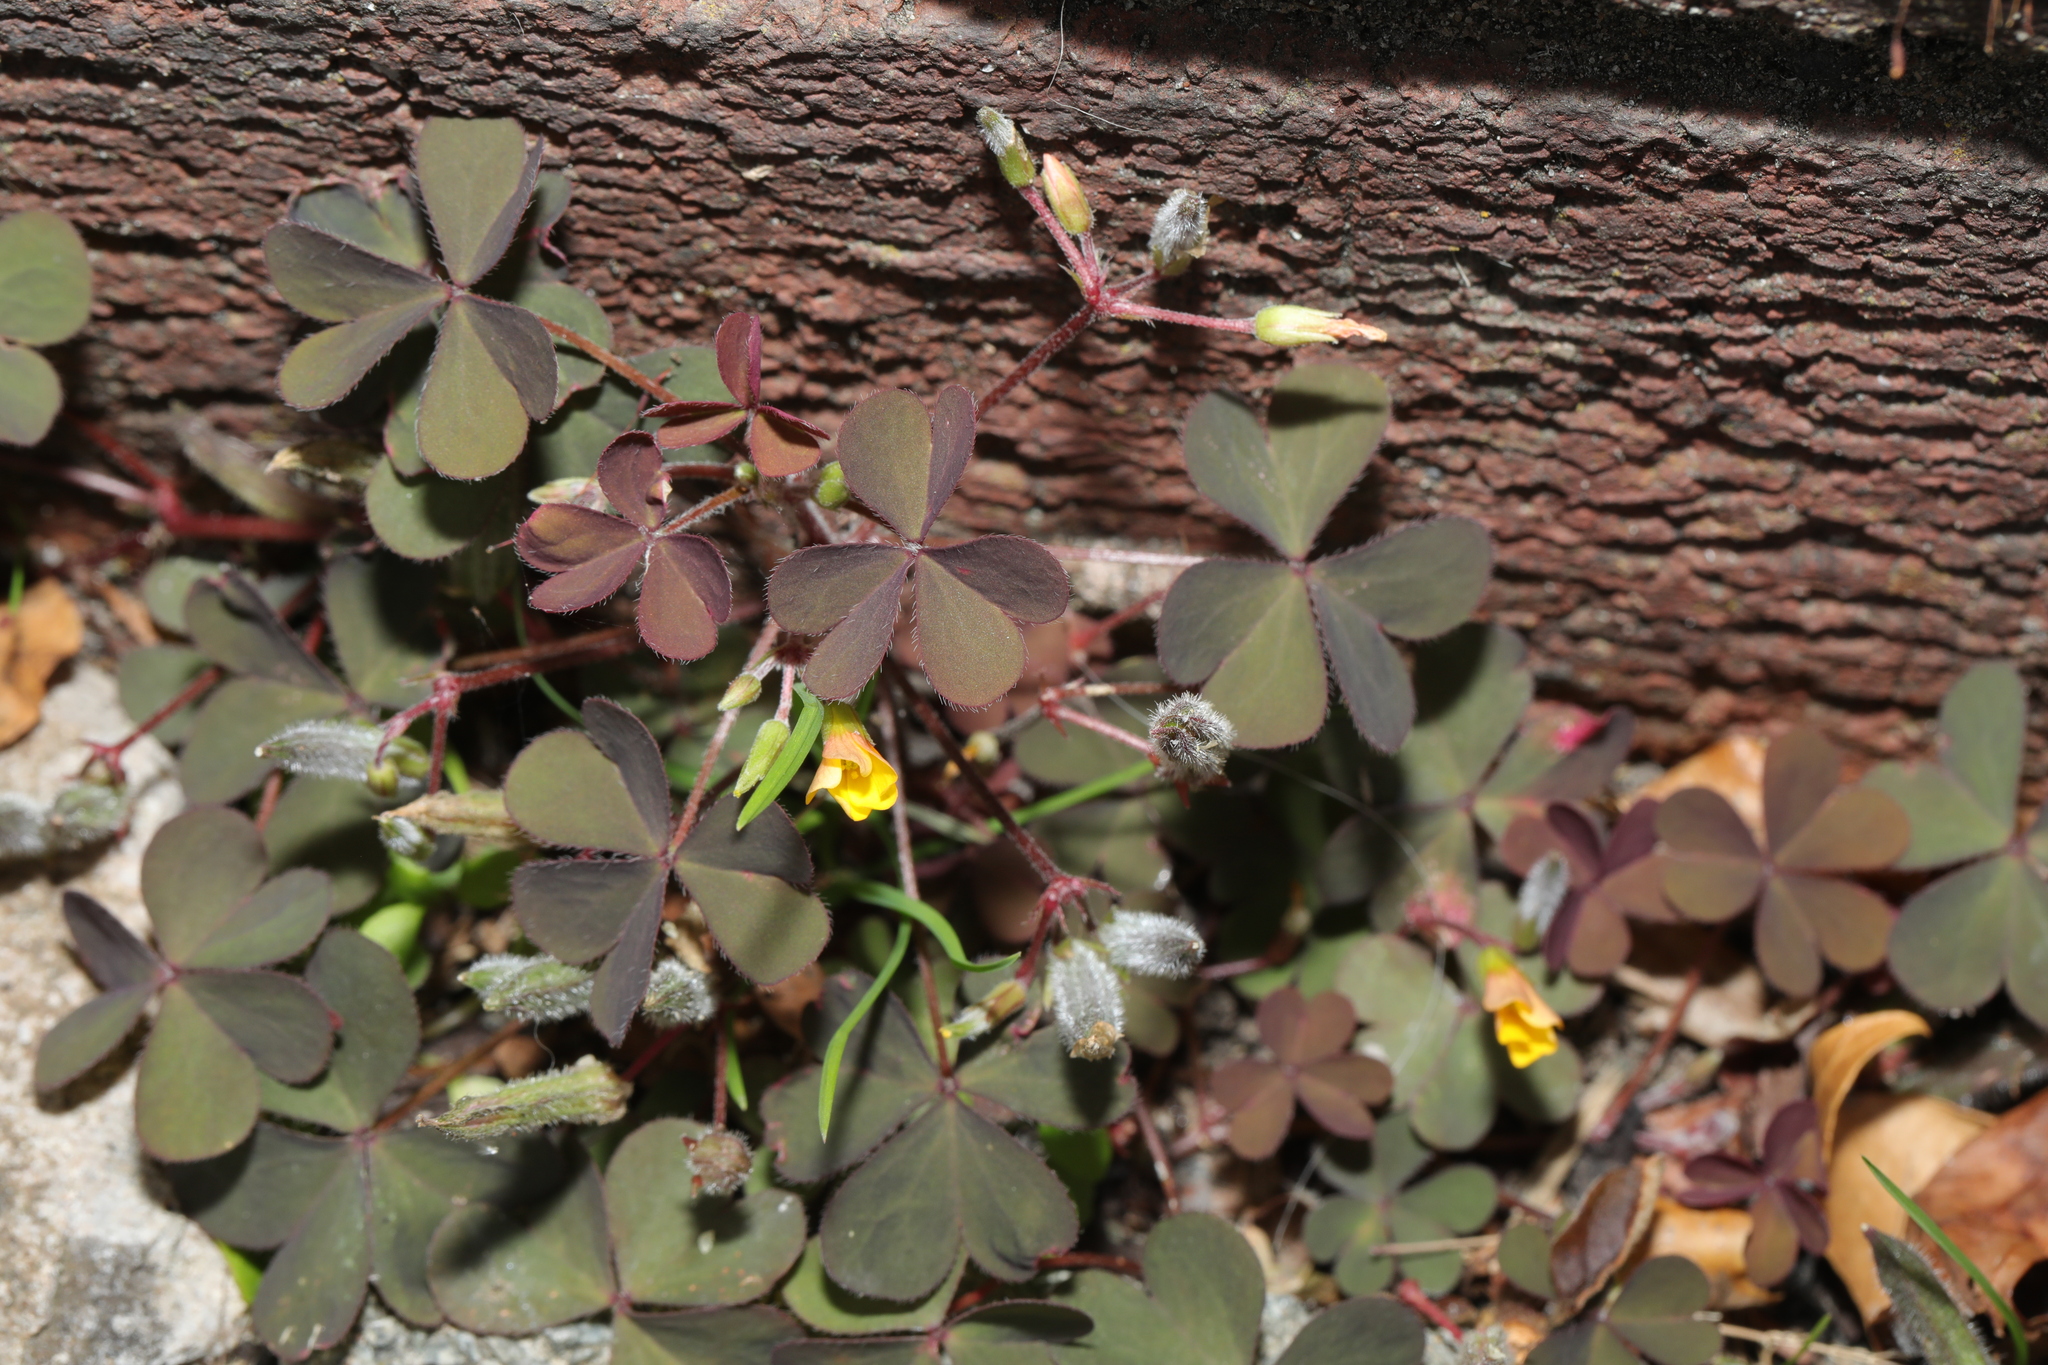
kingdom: Plantae
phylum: Tracheophyta
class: Magnoliopsida
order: Oxalidales
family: Oxalidaceae
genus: Oxalis
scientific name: Oxalis corniculata
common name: Procumbent yellow-sorrel
